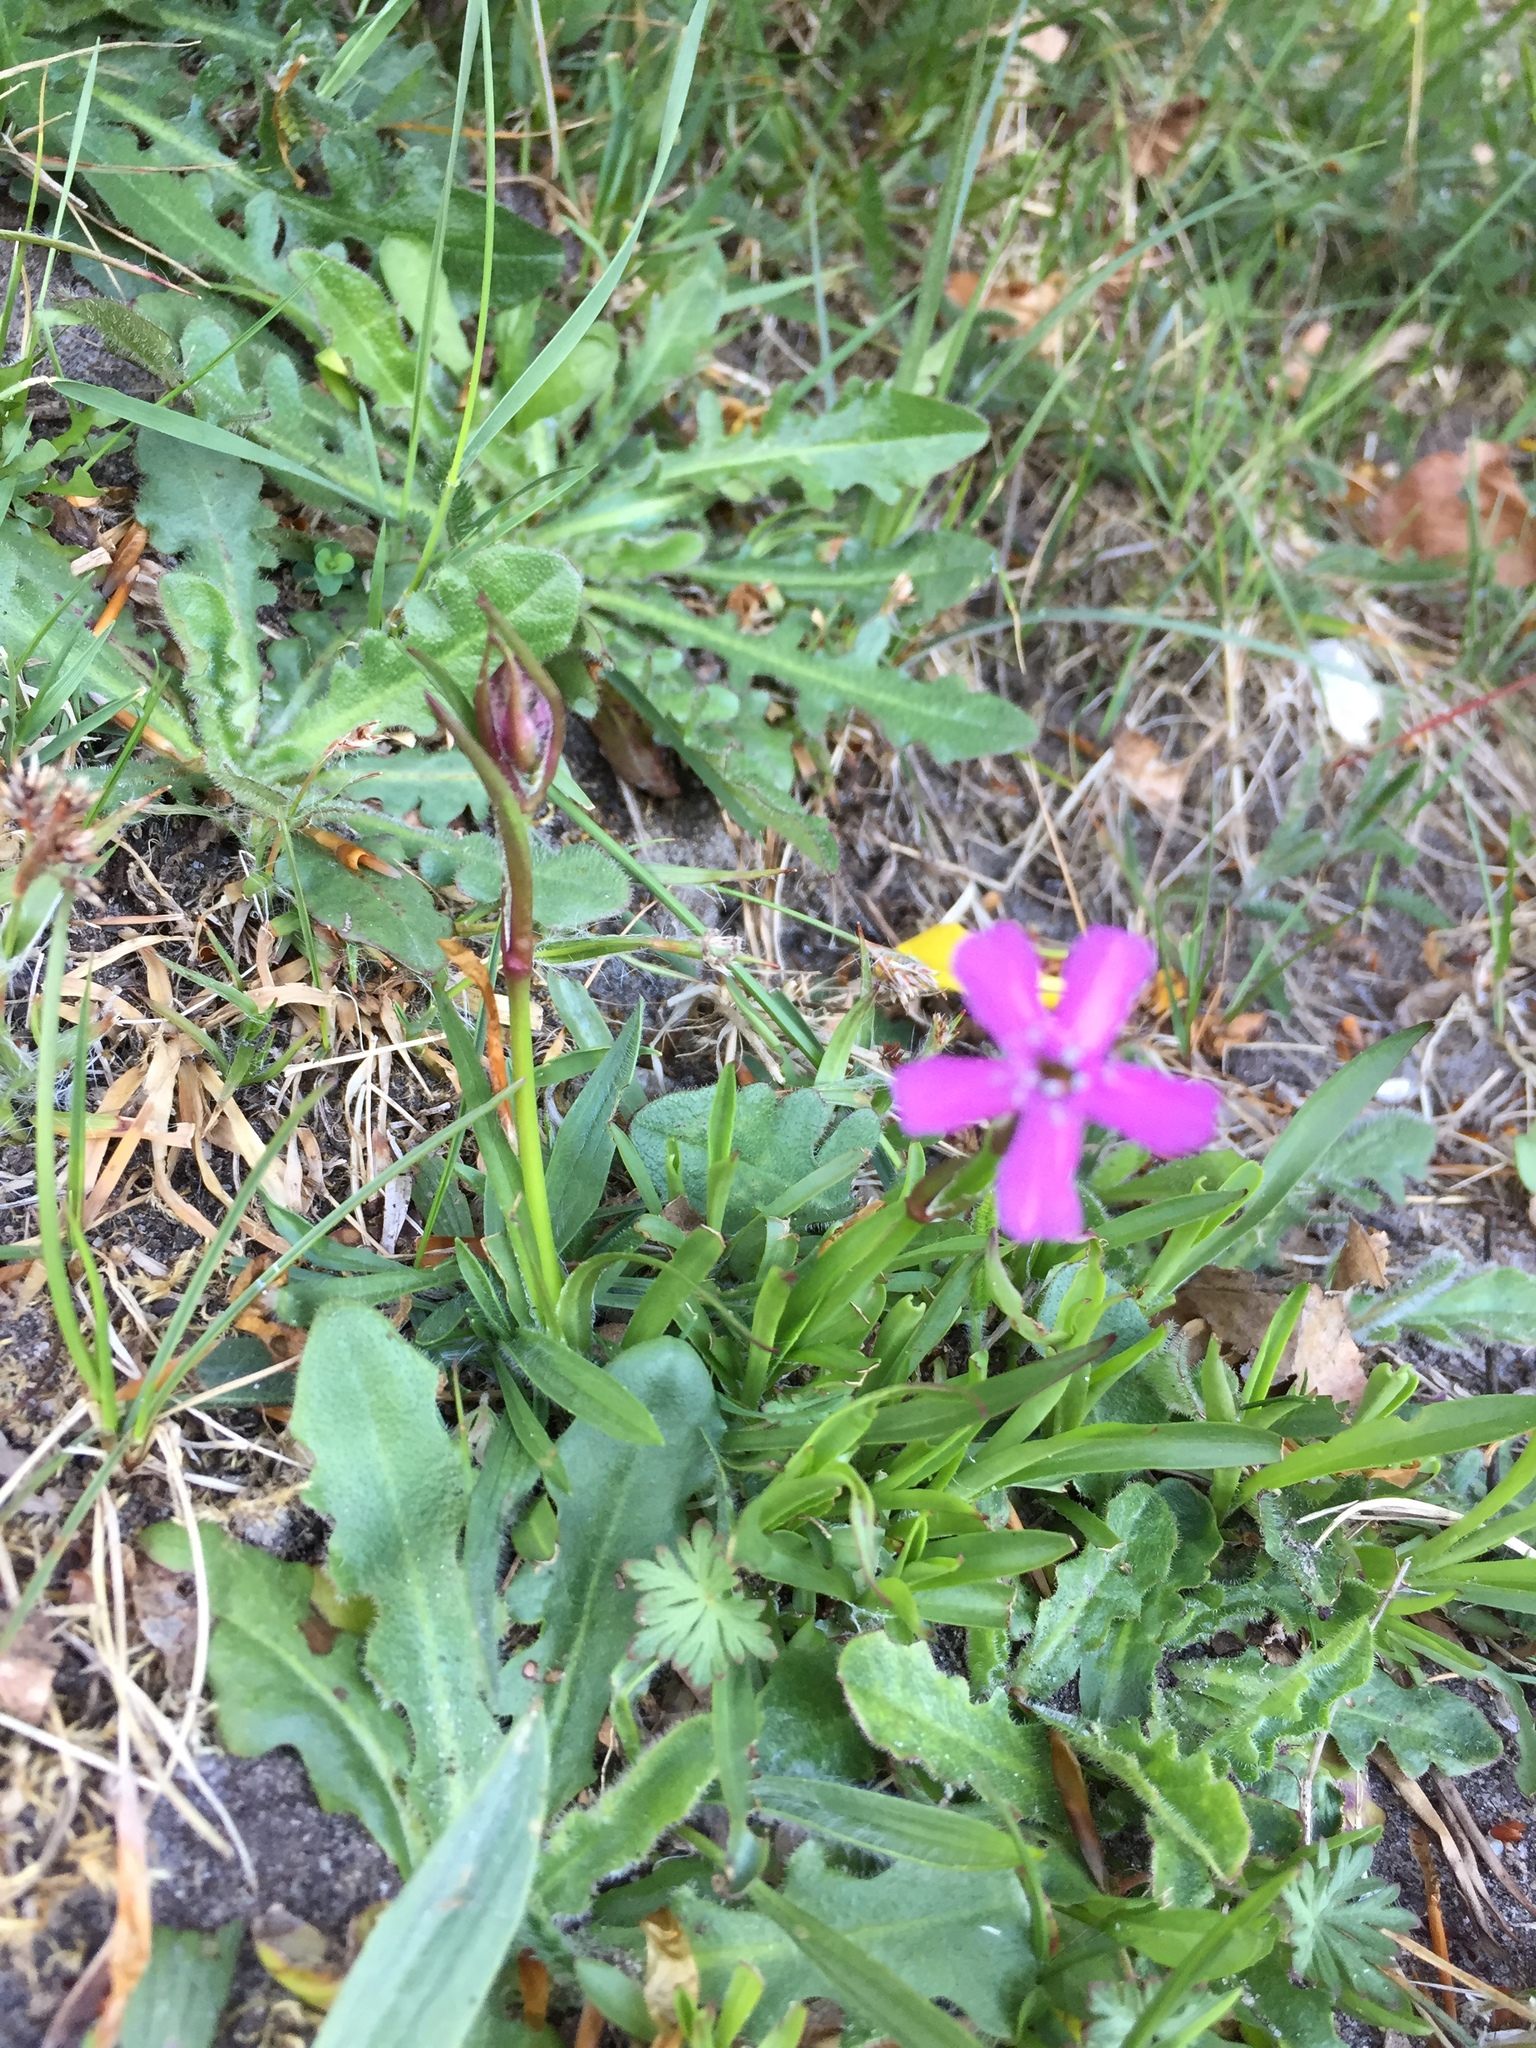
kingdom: Plantae
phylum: Tracheophyta
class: Magnoliopsida
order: Caryophyllales
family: Caryophyllaceae
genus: Viscaria
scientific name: Viscaria vulgaris
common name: Clammy campion
